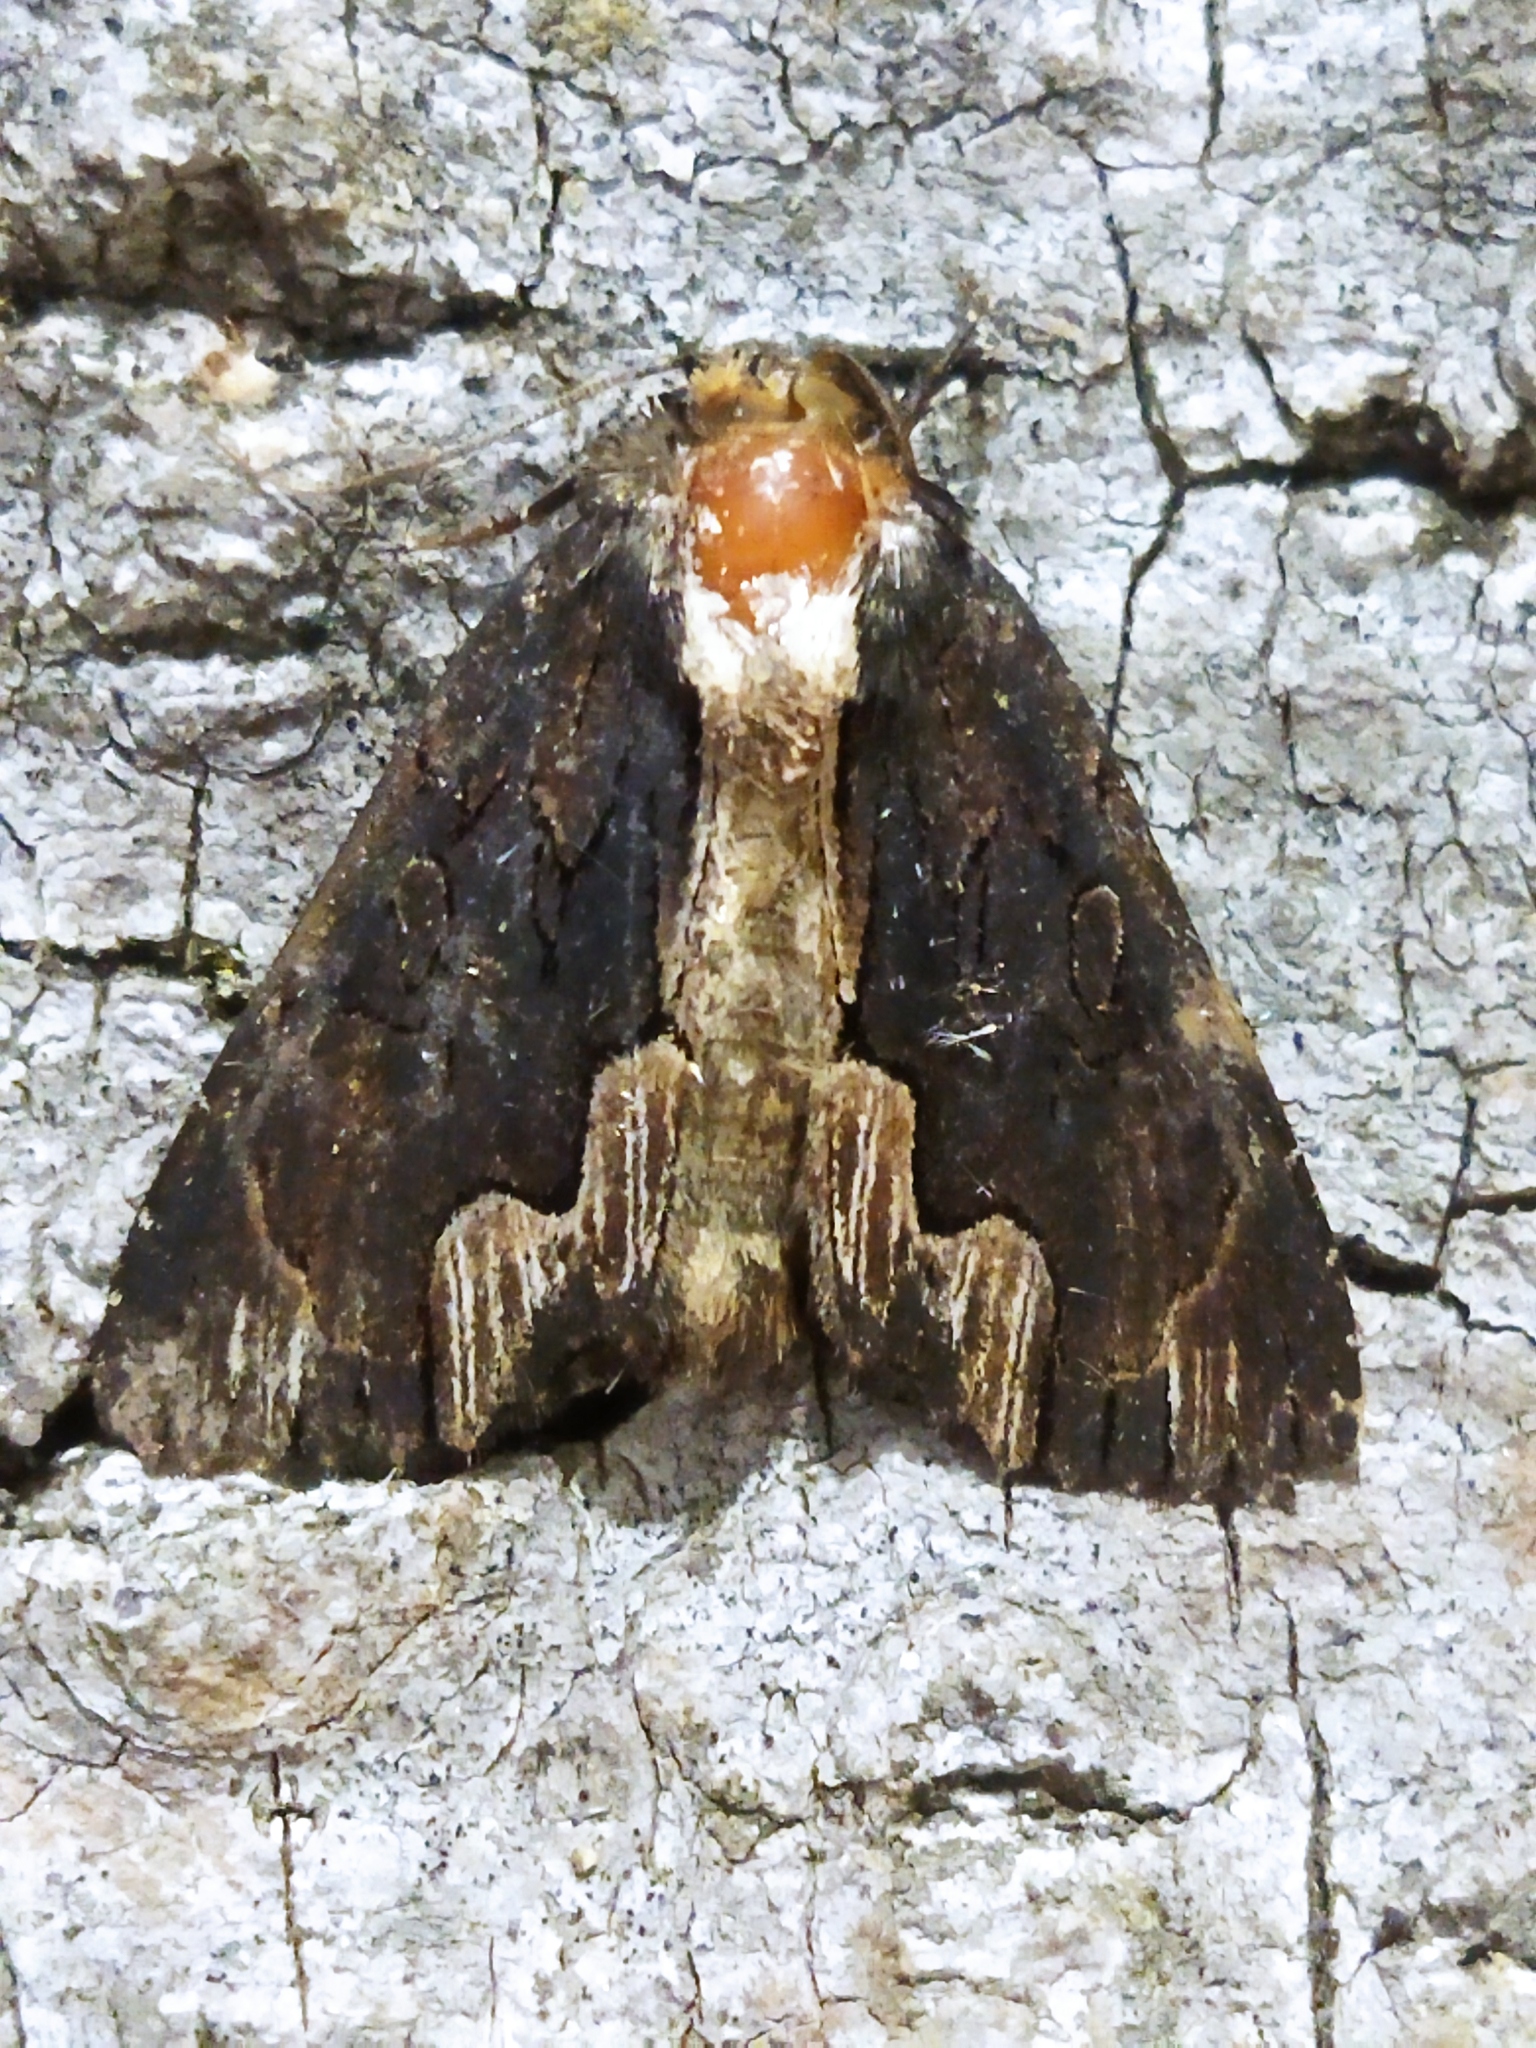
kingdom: Animalia
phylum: Arthropoda
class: Insecta
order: Lepidoptera
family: Noctuidae
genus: Dypterygia
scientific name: Dypterygia scabriuscula
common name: Bird's wing
